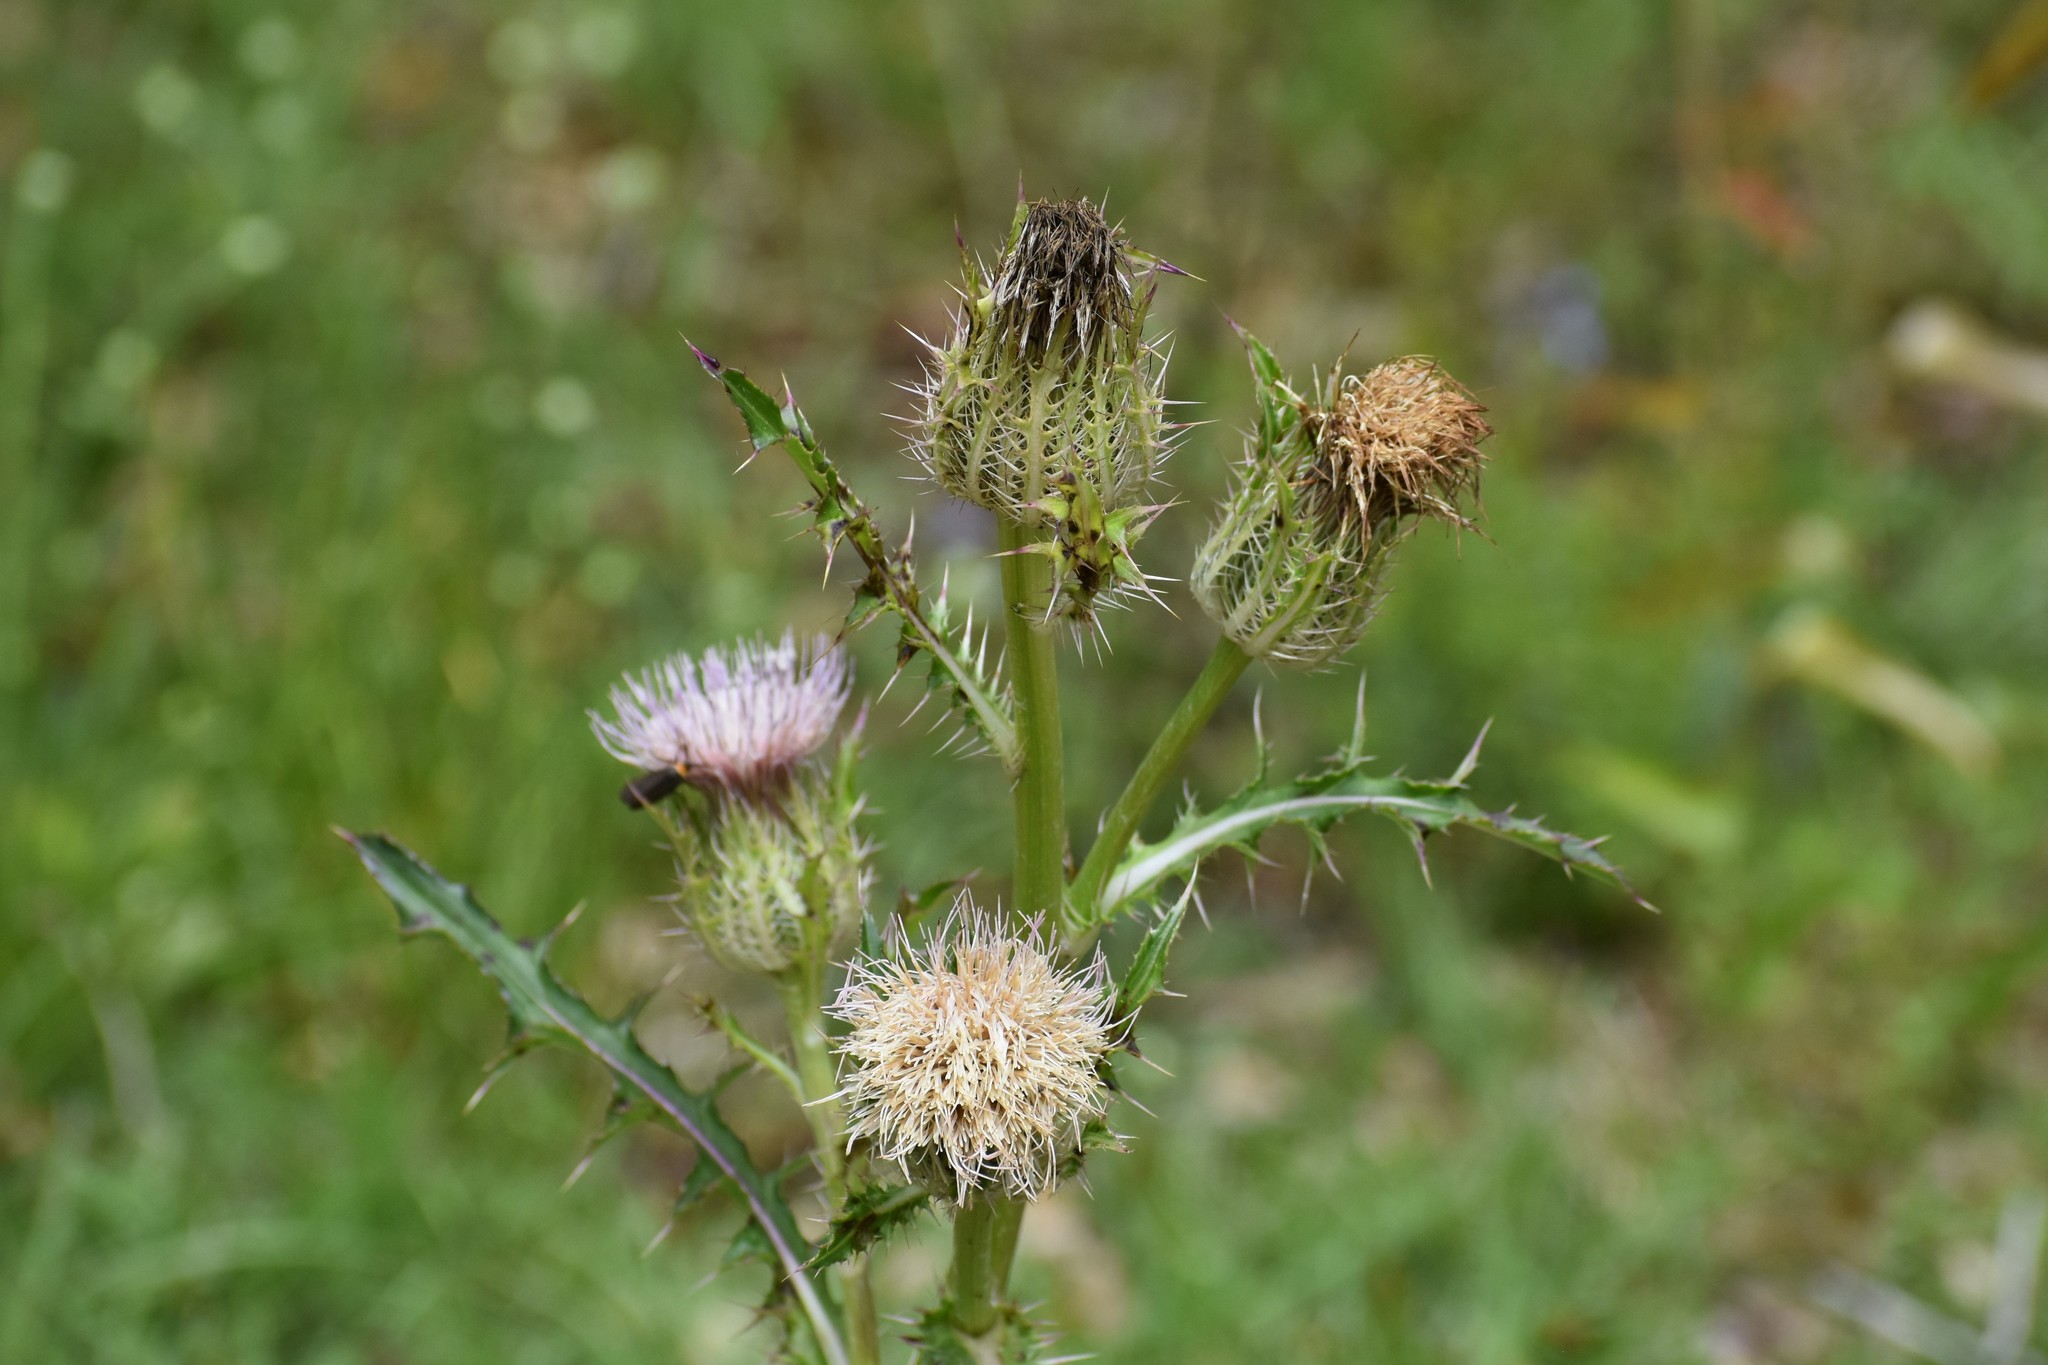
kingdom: Plantae
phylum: Tracheophyta
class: Magnoliopsida
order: Asterales
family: Asteraceae
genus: Cirsium
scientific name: Cirsium horridulum
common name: Bristly thistle
